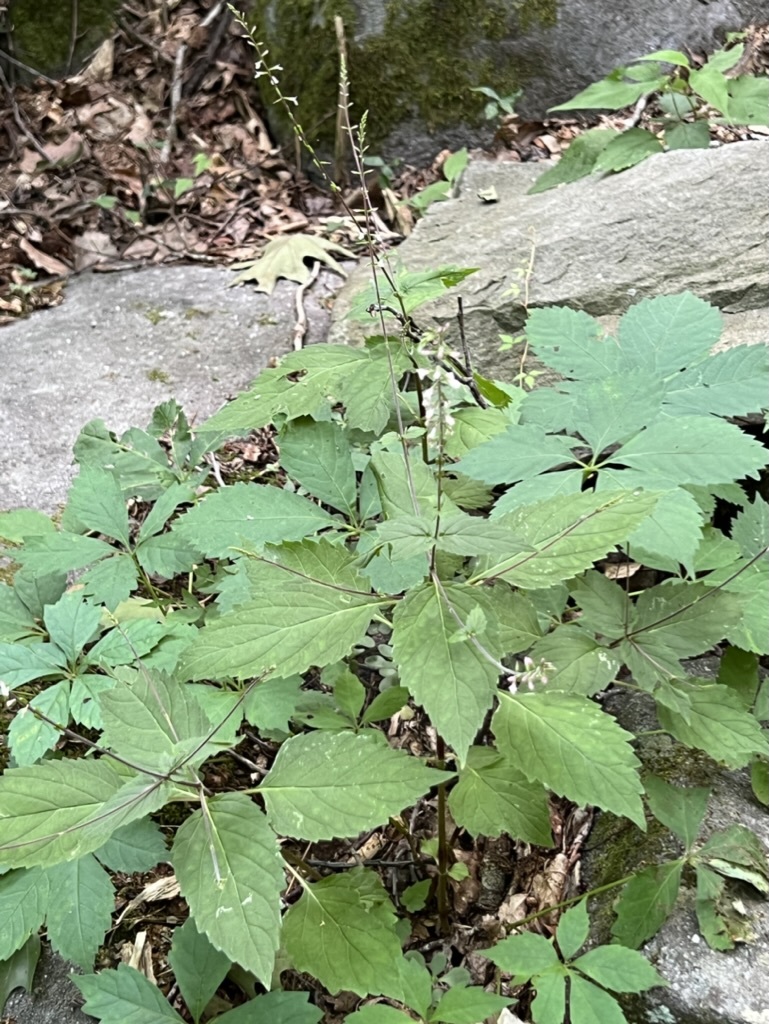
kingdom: Plantae
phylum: Tracheophyta
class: Magnoliopsida
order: Lamiales
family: Phrymaceae
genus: Phryma
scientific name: Phryma leptostachya
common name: American lopseed
